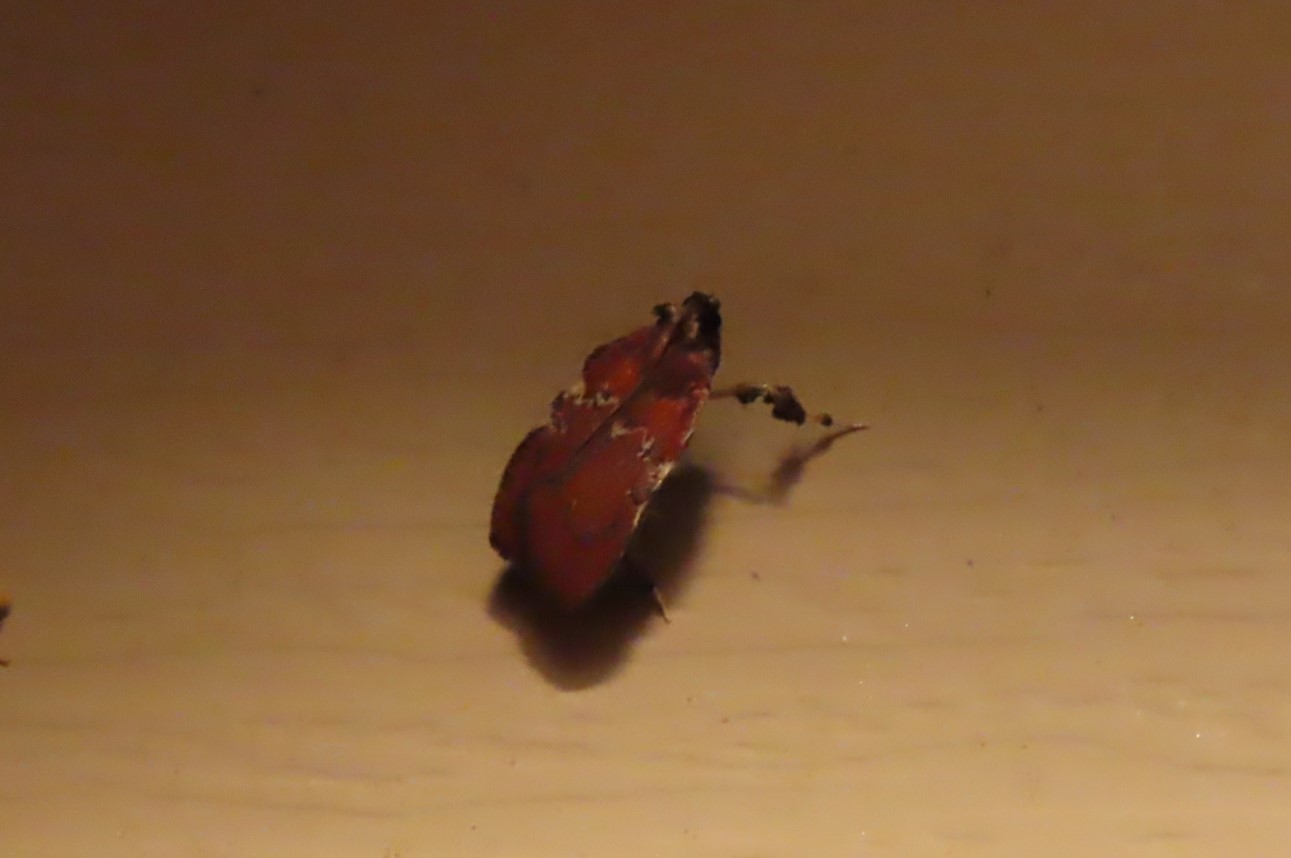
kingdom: Animalia
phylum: Arthropoda
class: Insecta
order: Lepidoptera
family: Pyralidae
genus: Galasa
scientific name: Galasa nigrinodis
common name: Boxwood leaftier moth
